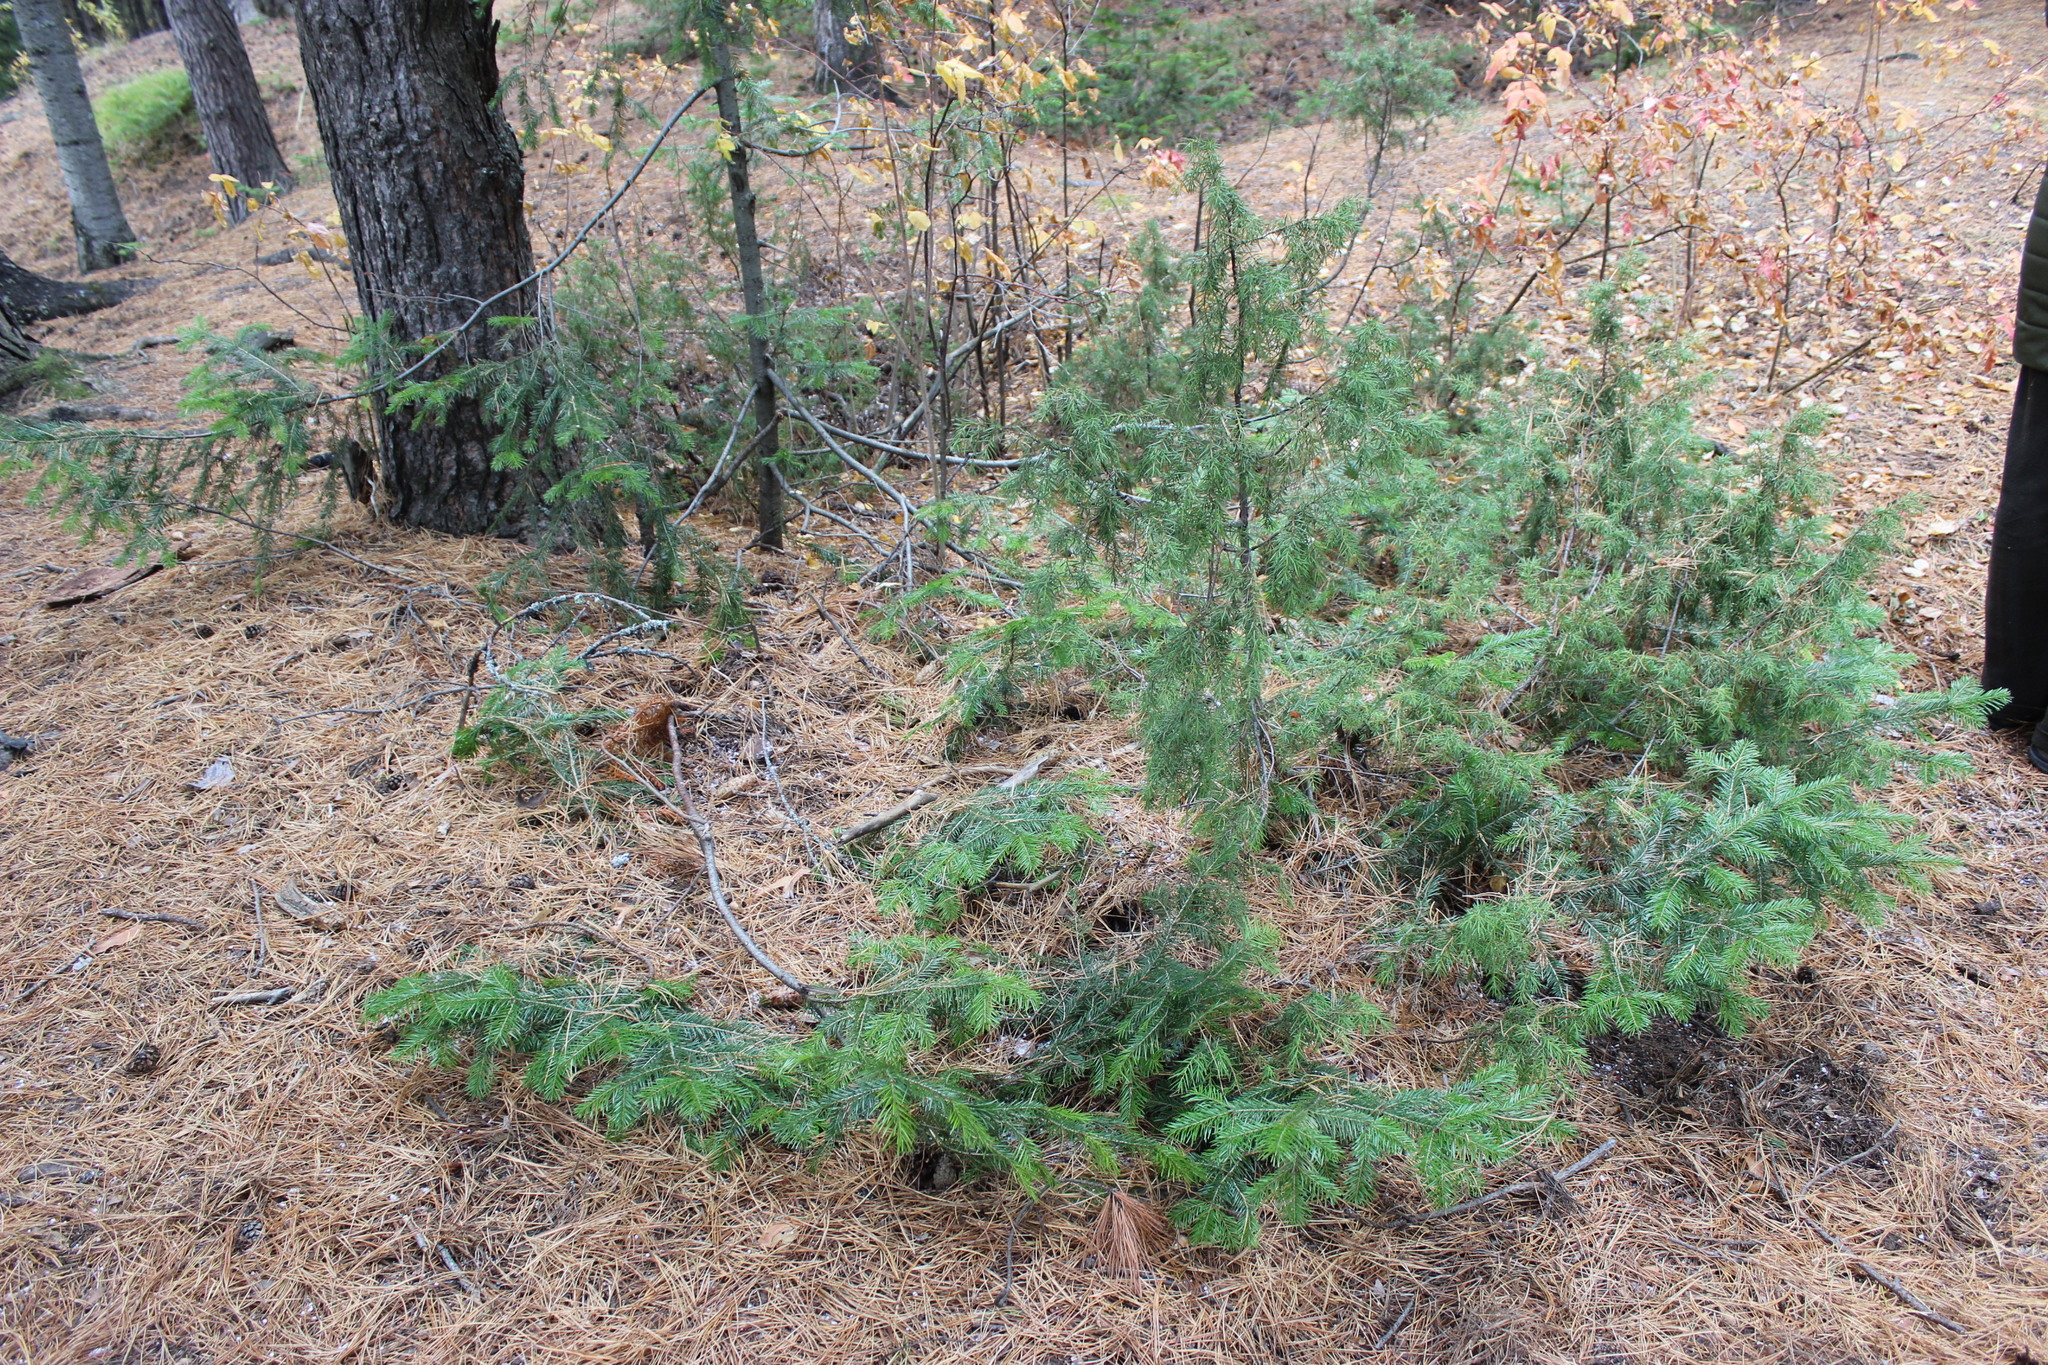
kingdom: Plantae
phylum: Tracheophyta
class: Pinopsida
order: Pinales
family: Pinaceae
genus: Abies
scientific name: Abies sibirica
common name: Siberian fir
